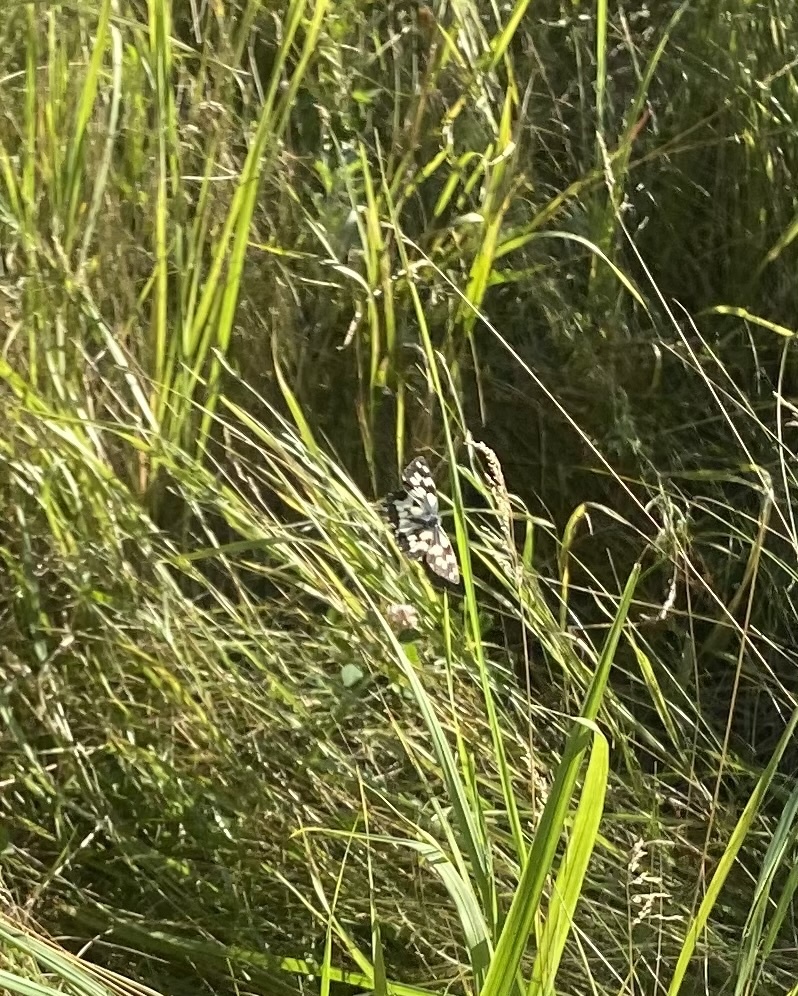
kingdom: Animalia
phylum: Arthropoda
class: Insecta
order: Lepidoptera
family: Nymphalidae
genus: Melanargia
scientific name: Melanargia galathea
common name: Marbled white
